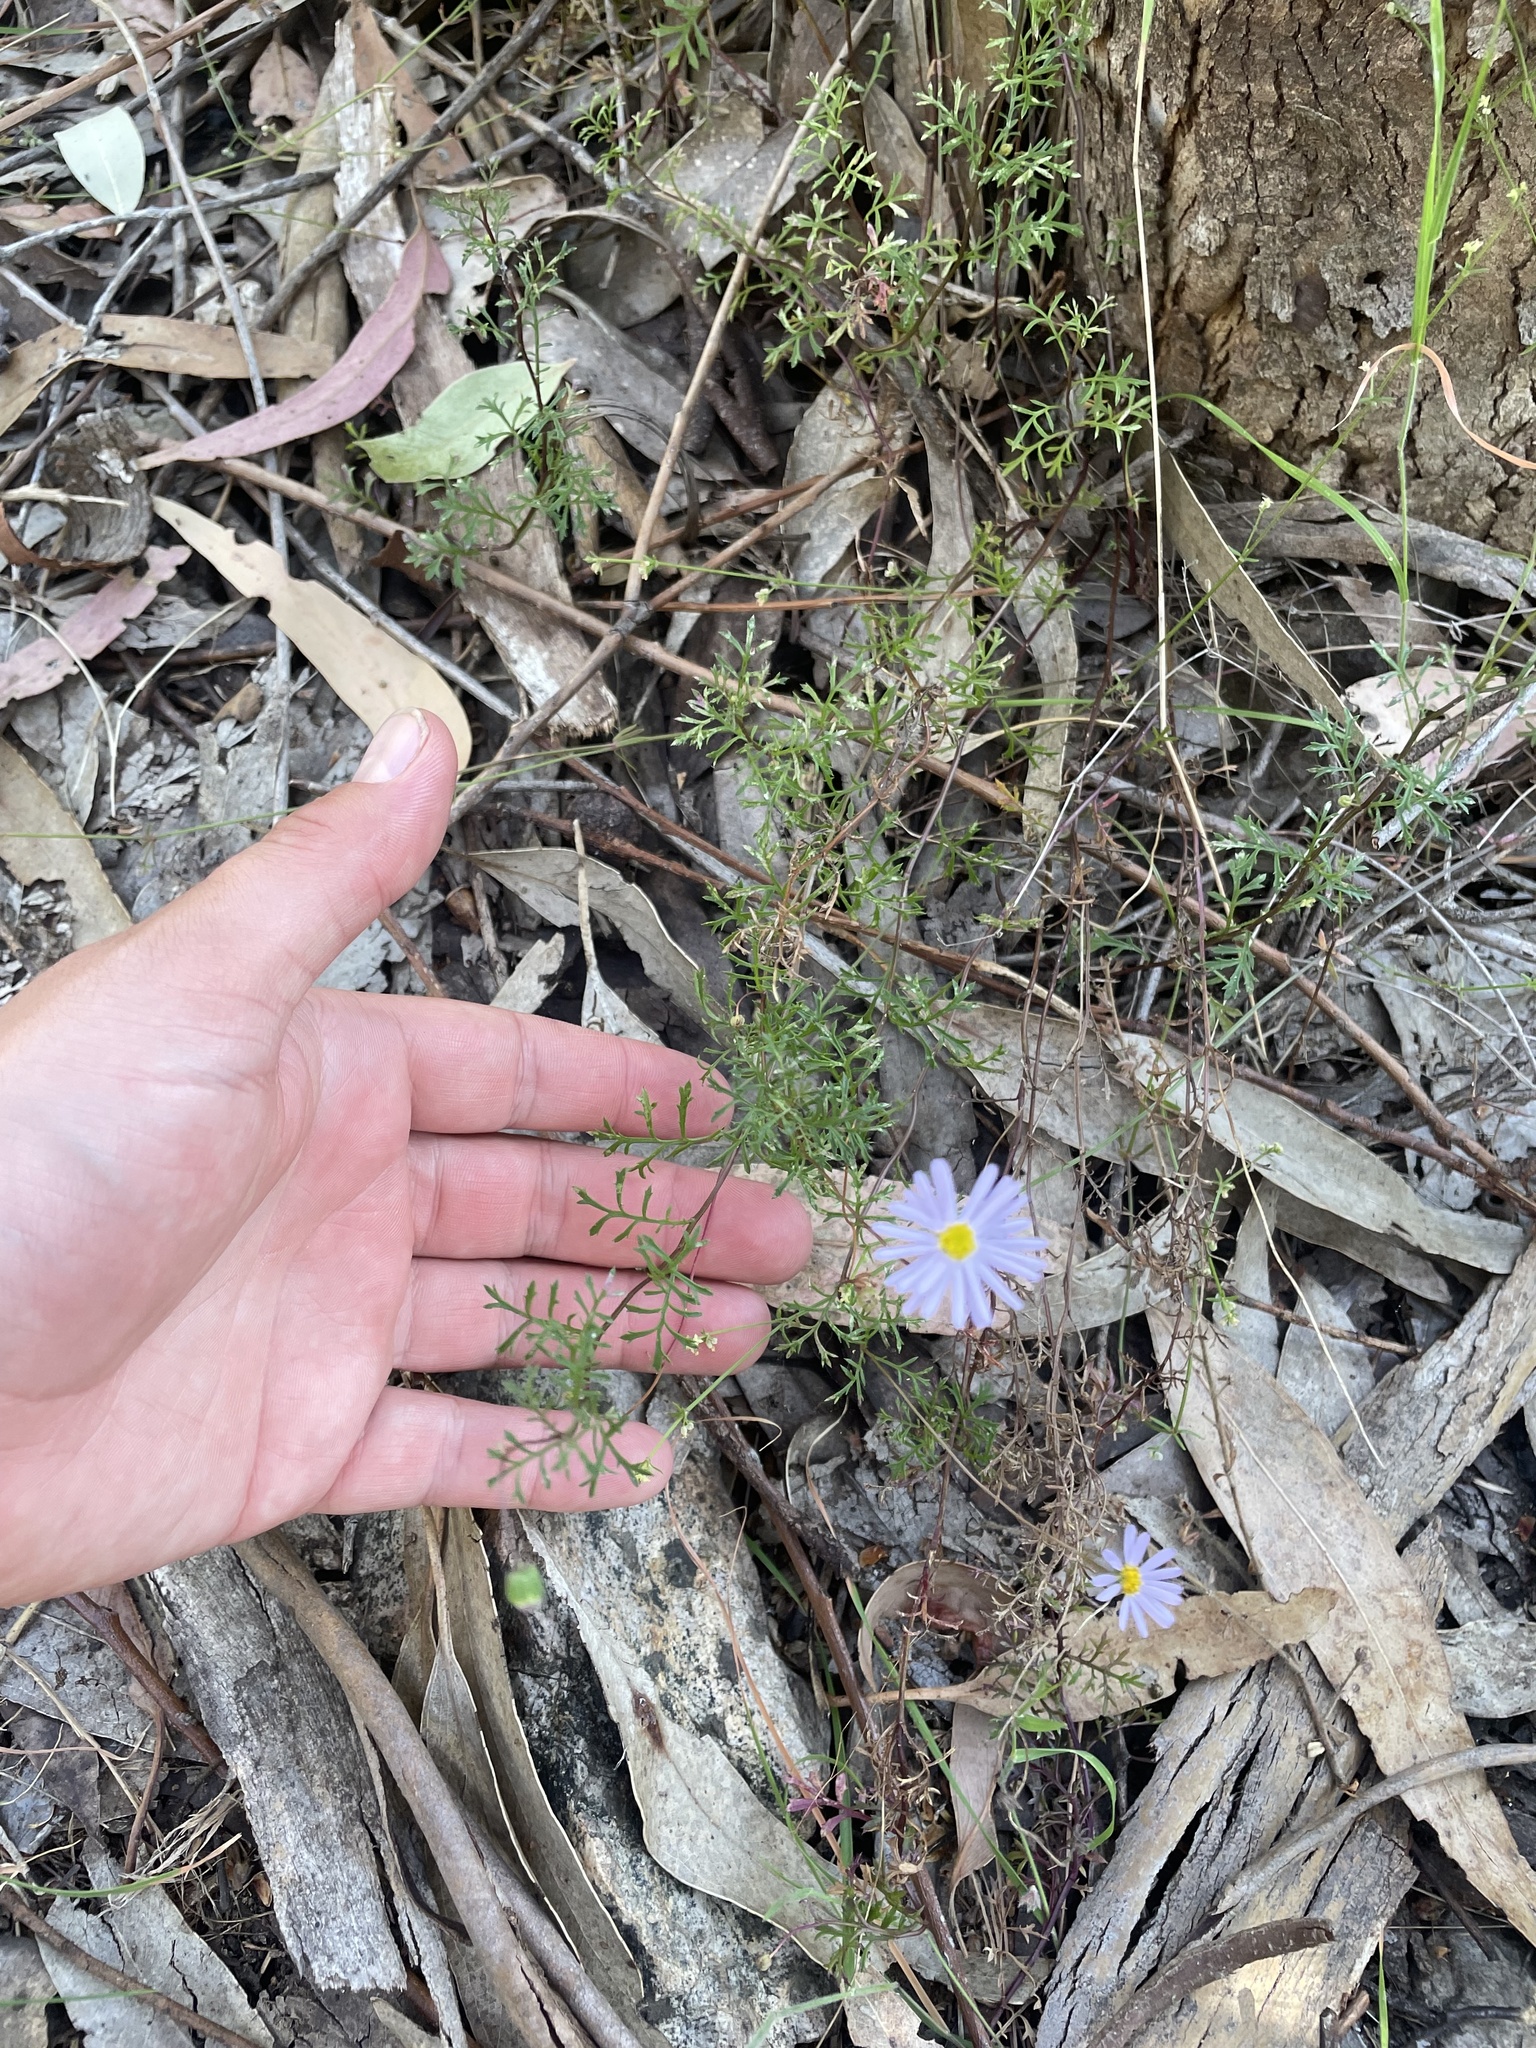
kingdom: Plantae
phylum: Tracheophyta
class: Magnoliopsida
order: Asterales
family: Asteraceae
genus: Brachyscome
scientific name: Brachyscome multifida
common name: Cut-leaf daisy
